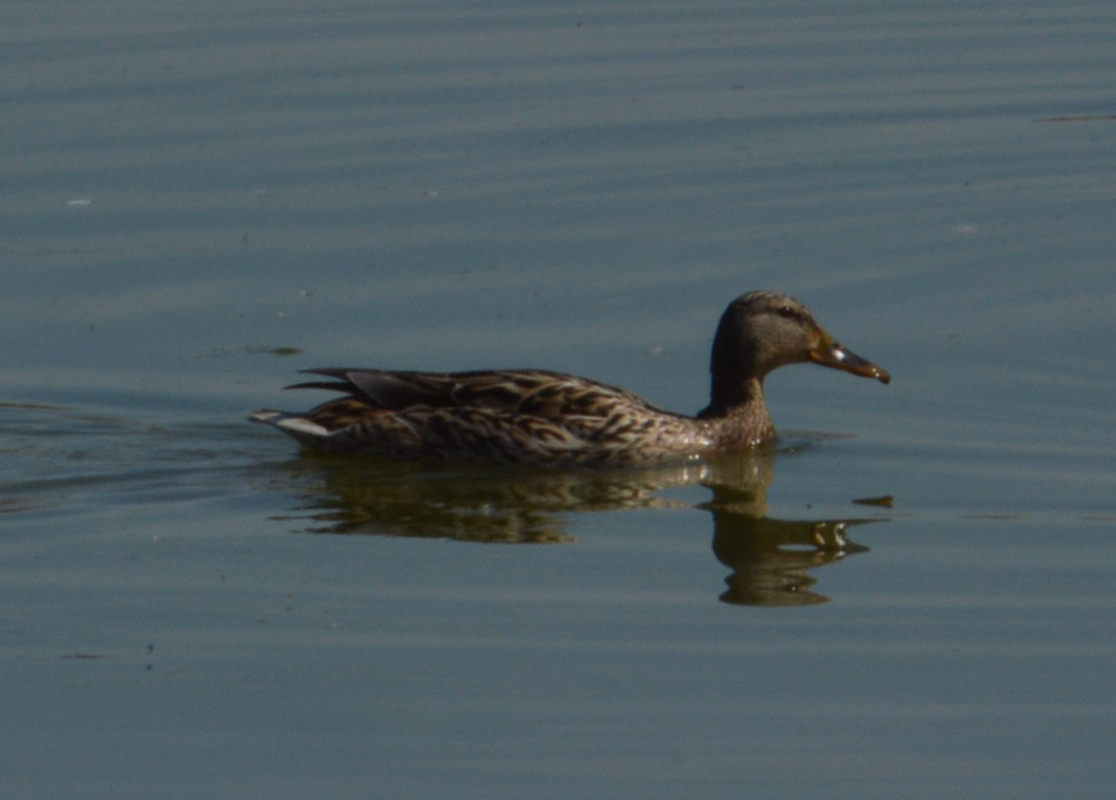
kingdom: Animalia
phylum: Chordata
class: Aves
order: Anseriformes
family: Anatidae
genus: Anas
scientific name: Anas platyrhynchos
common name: Mallard
